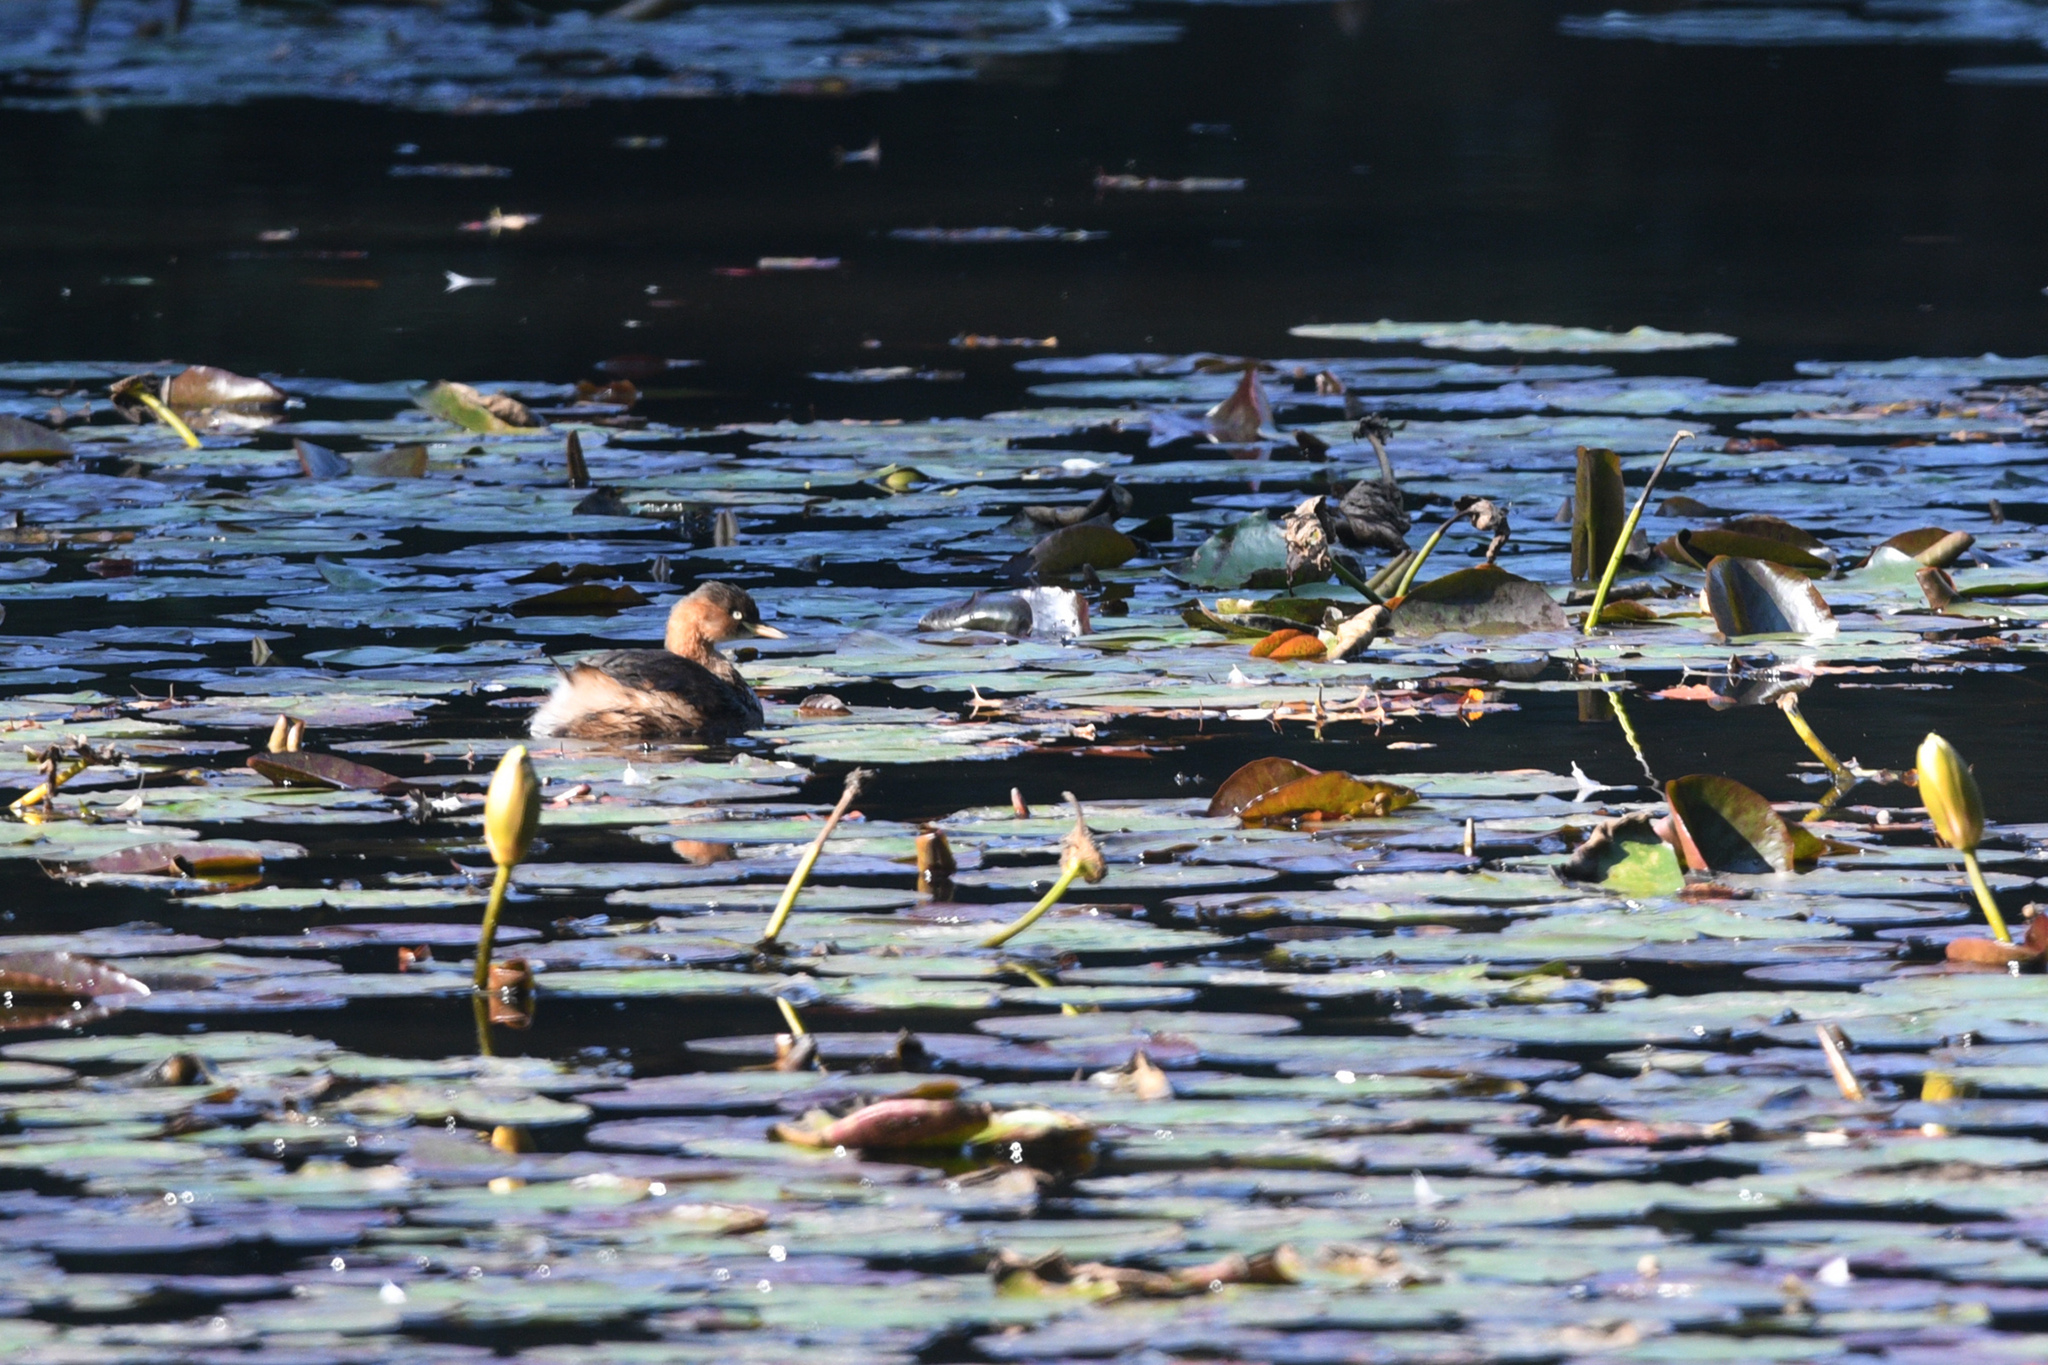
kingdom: Animalia
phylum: Chordata
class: Aves
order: Podicipediformes
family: Podicipedidae
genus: Tachybaptus
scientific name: Tachybaptus ruficollis
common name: Little grebe
